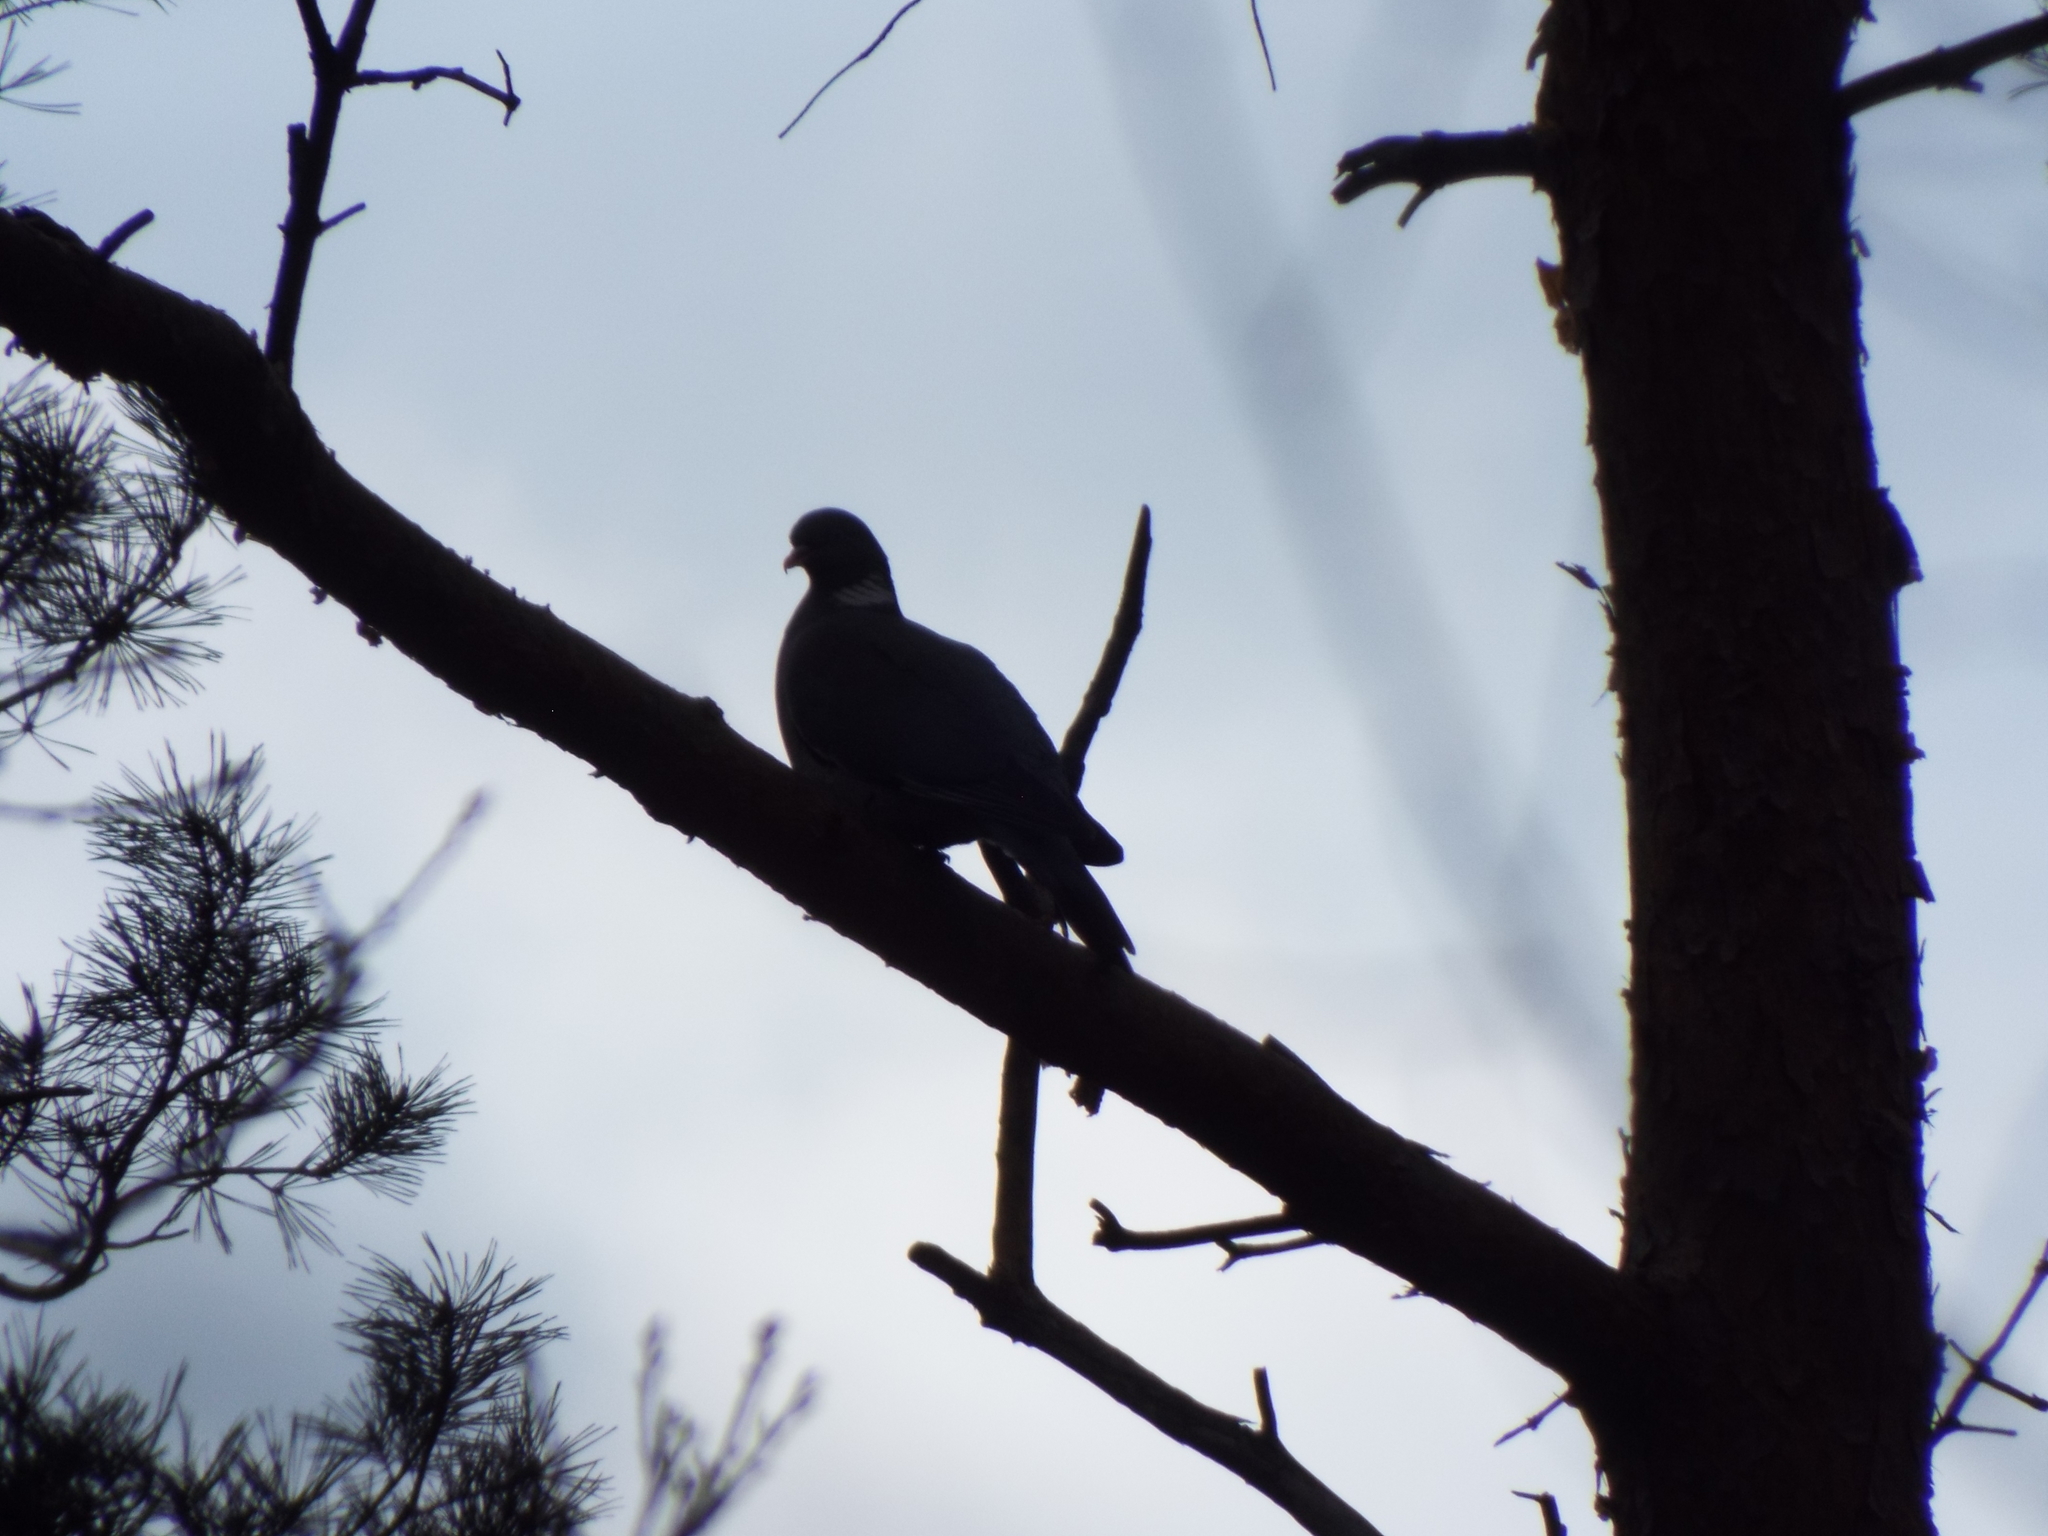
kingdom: Animalia
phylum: Chordata
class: Aves
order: Columbiformes
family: Columbidae
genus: Columba
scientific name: Columba palumbus
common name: Common wood pigeon
